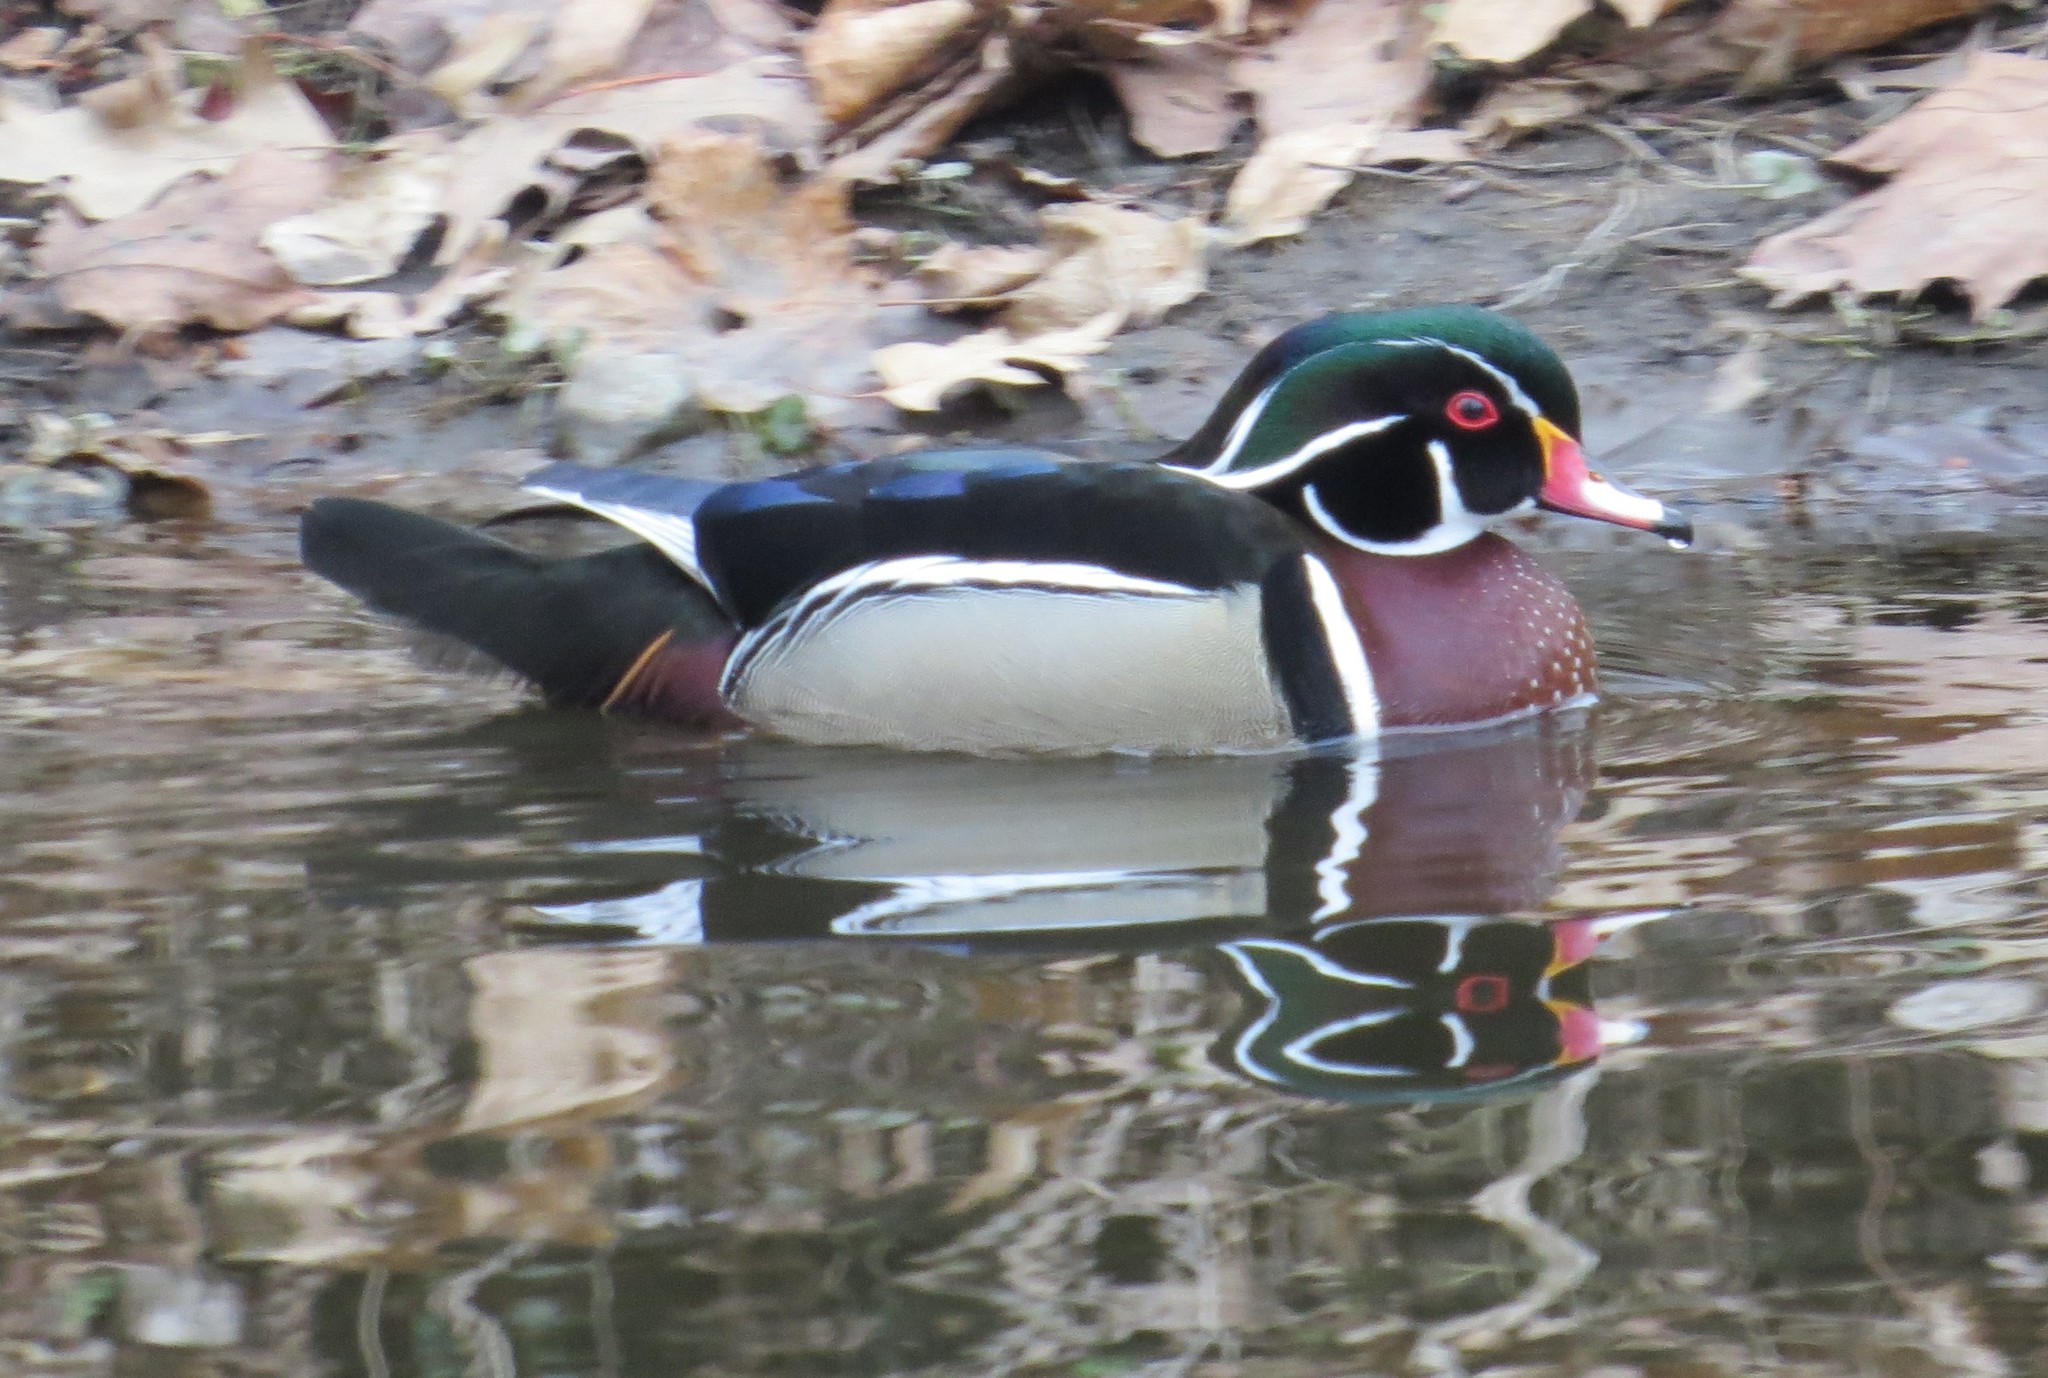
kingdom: Animalia
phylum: Chordata
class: Aves
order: Anseriformes
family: Anatidae
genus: Aix
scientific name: Aix sponsa
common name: Wood duck
